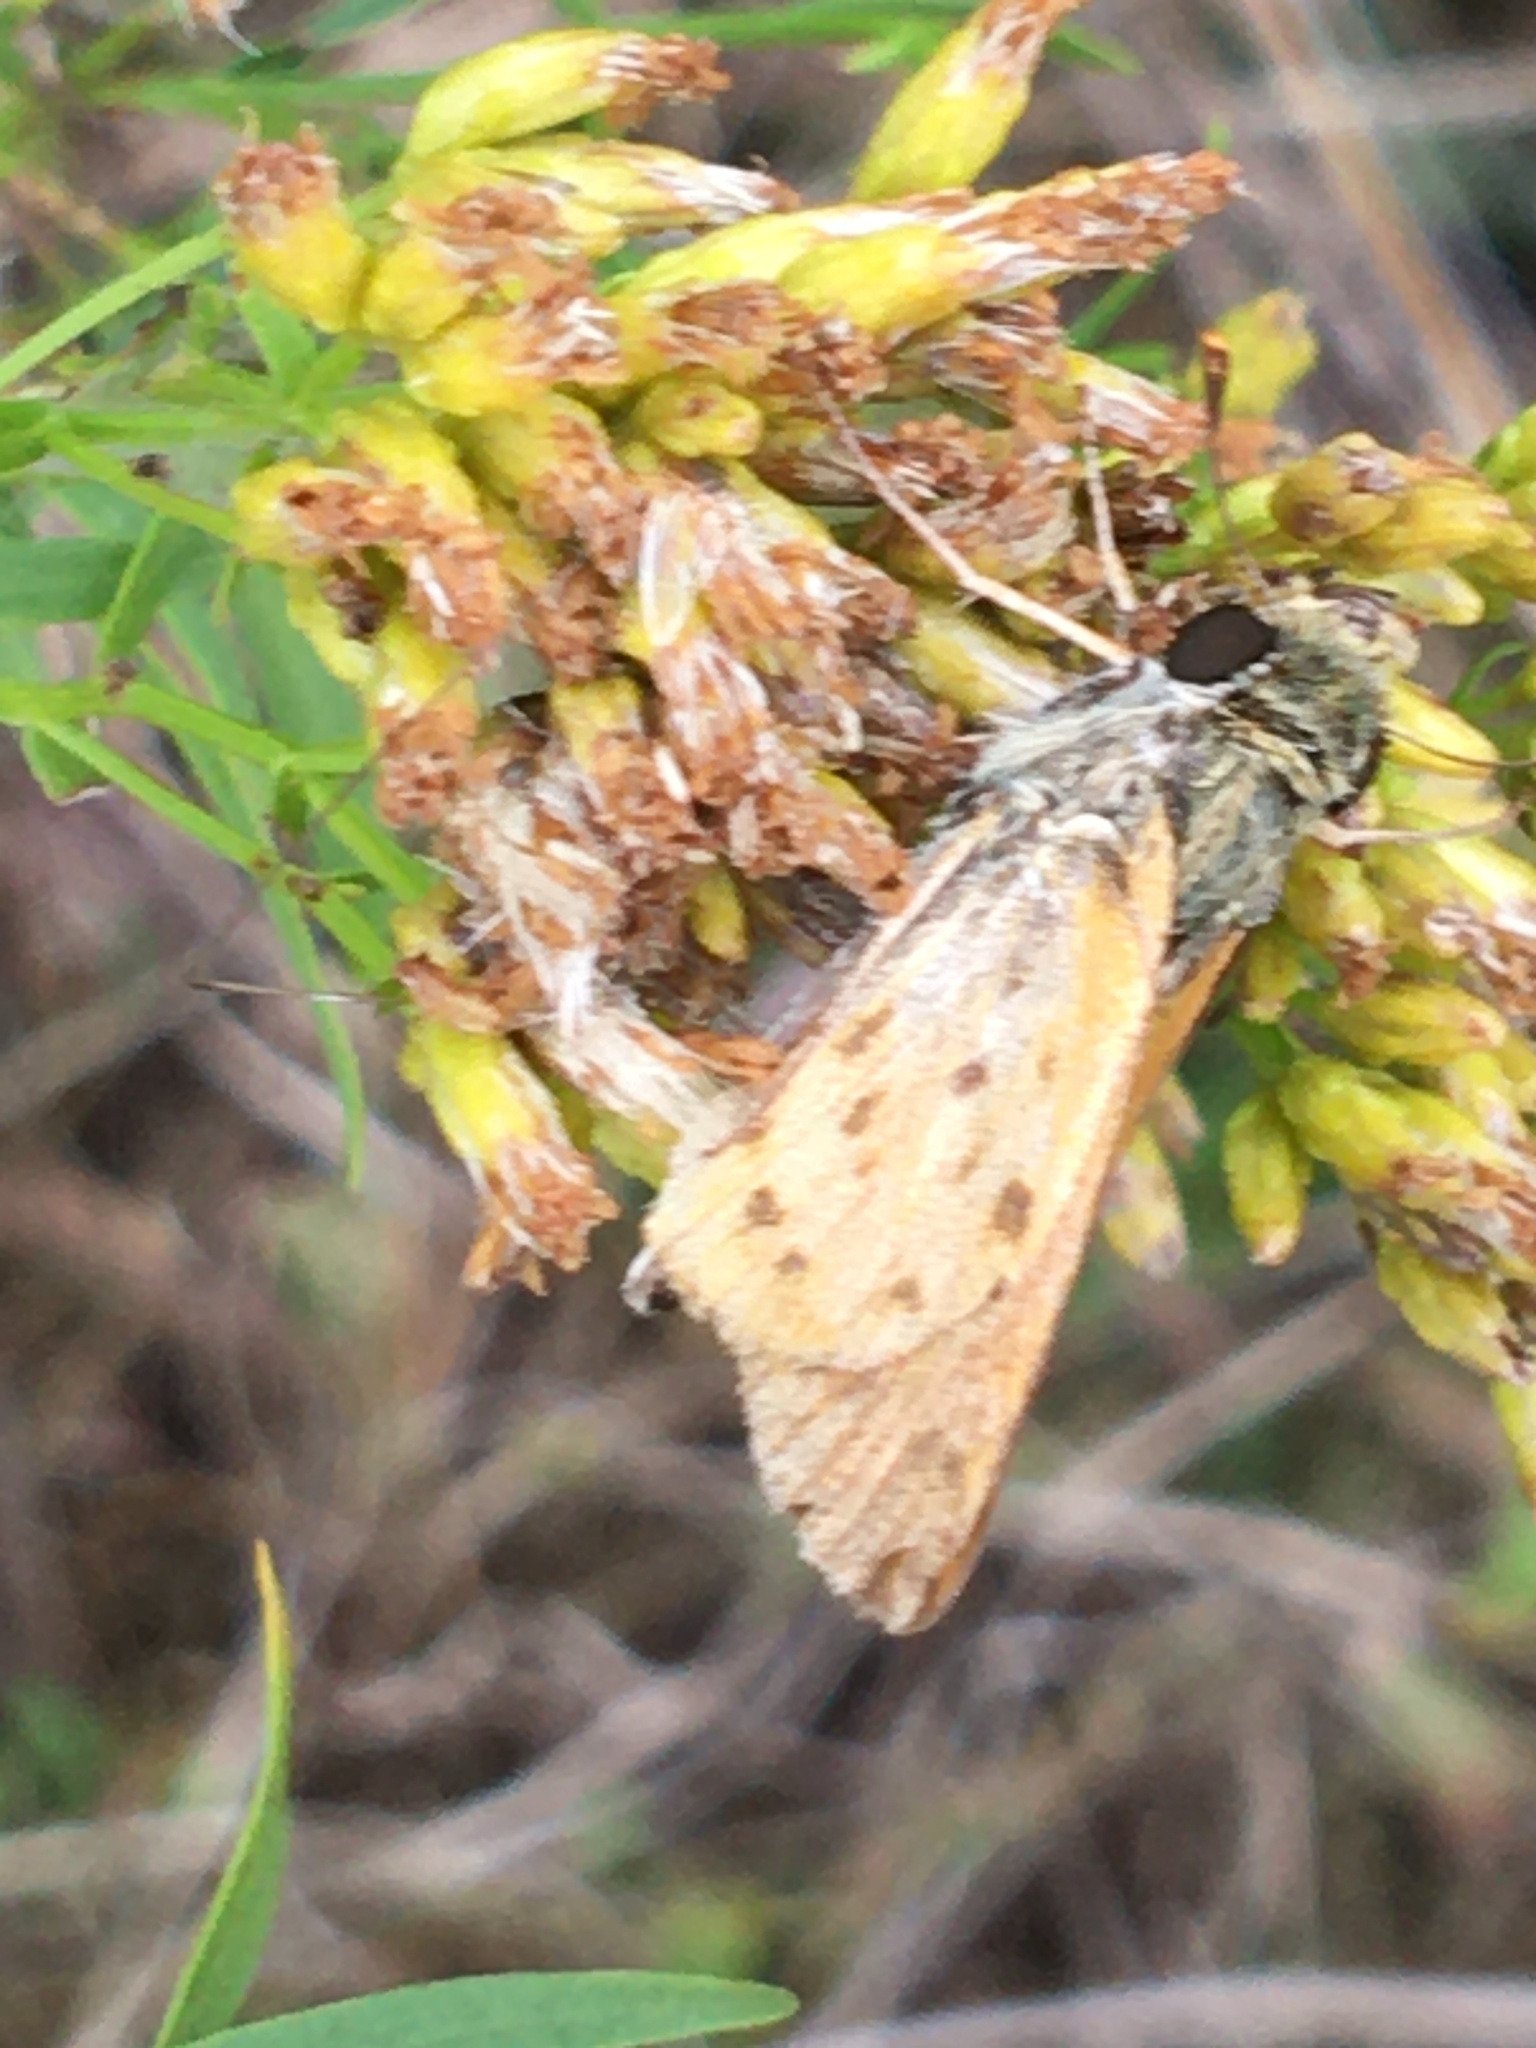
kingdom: Animalia
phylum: Arthropoda
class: Insecta
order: Lepidoptera
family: Hesperiidae
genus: Hylephila
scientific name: Hylephila phyleus
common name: Fiery skipper
